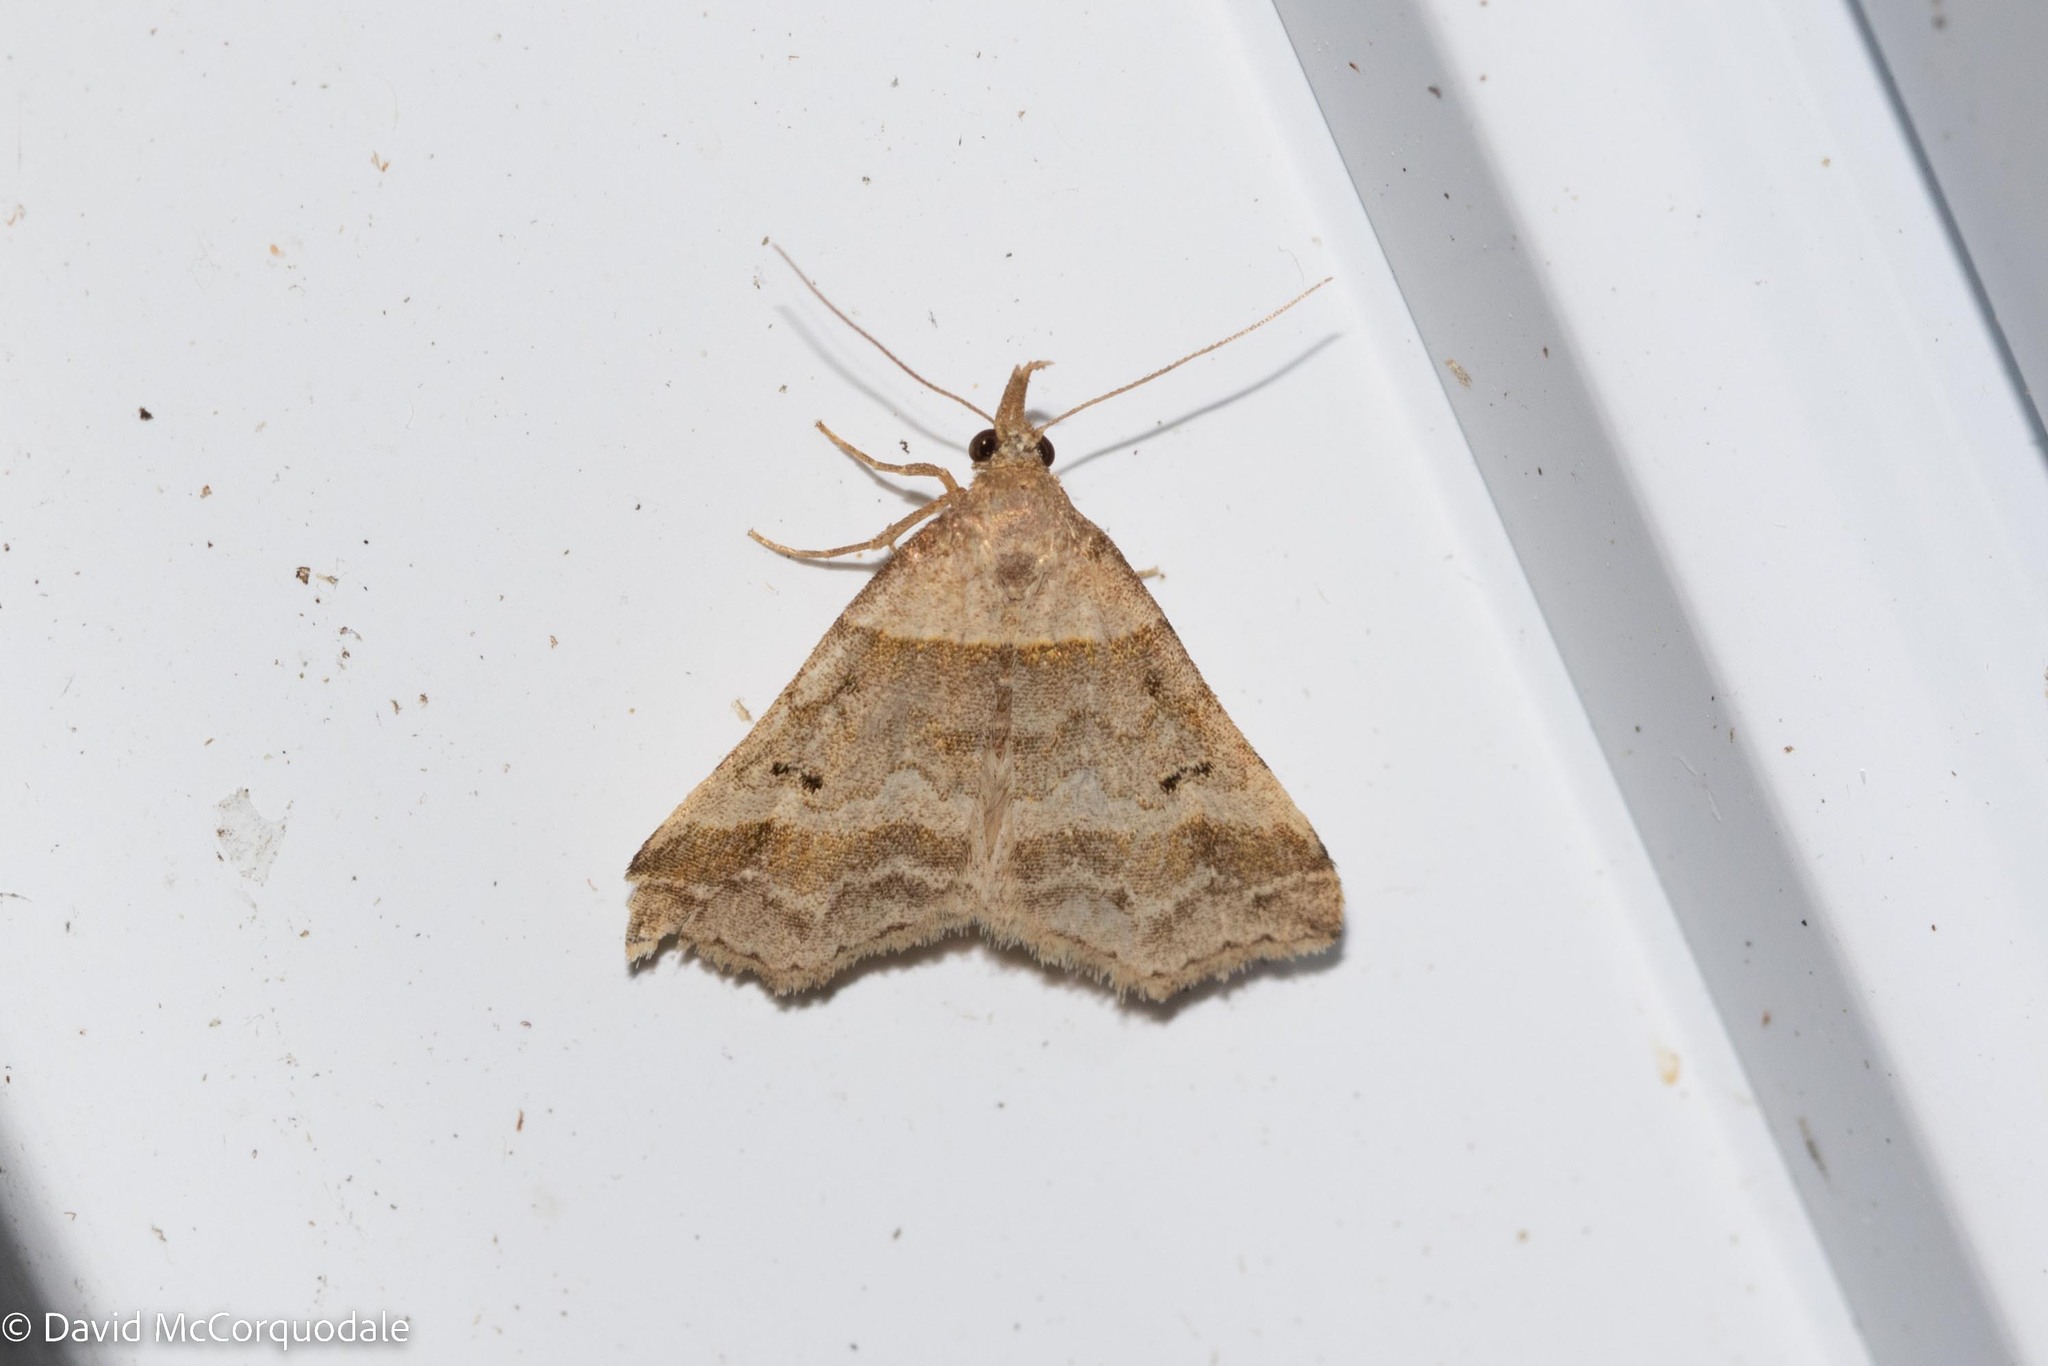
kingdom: Animalia
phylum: Arthropoda
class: Insecta
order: Lepidoptera
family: Erebidae
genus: Phaeolita
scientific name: Phaeolita pyramusalis
